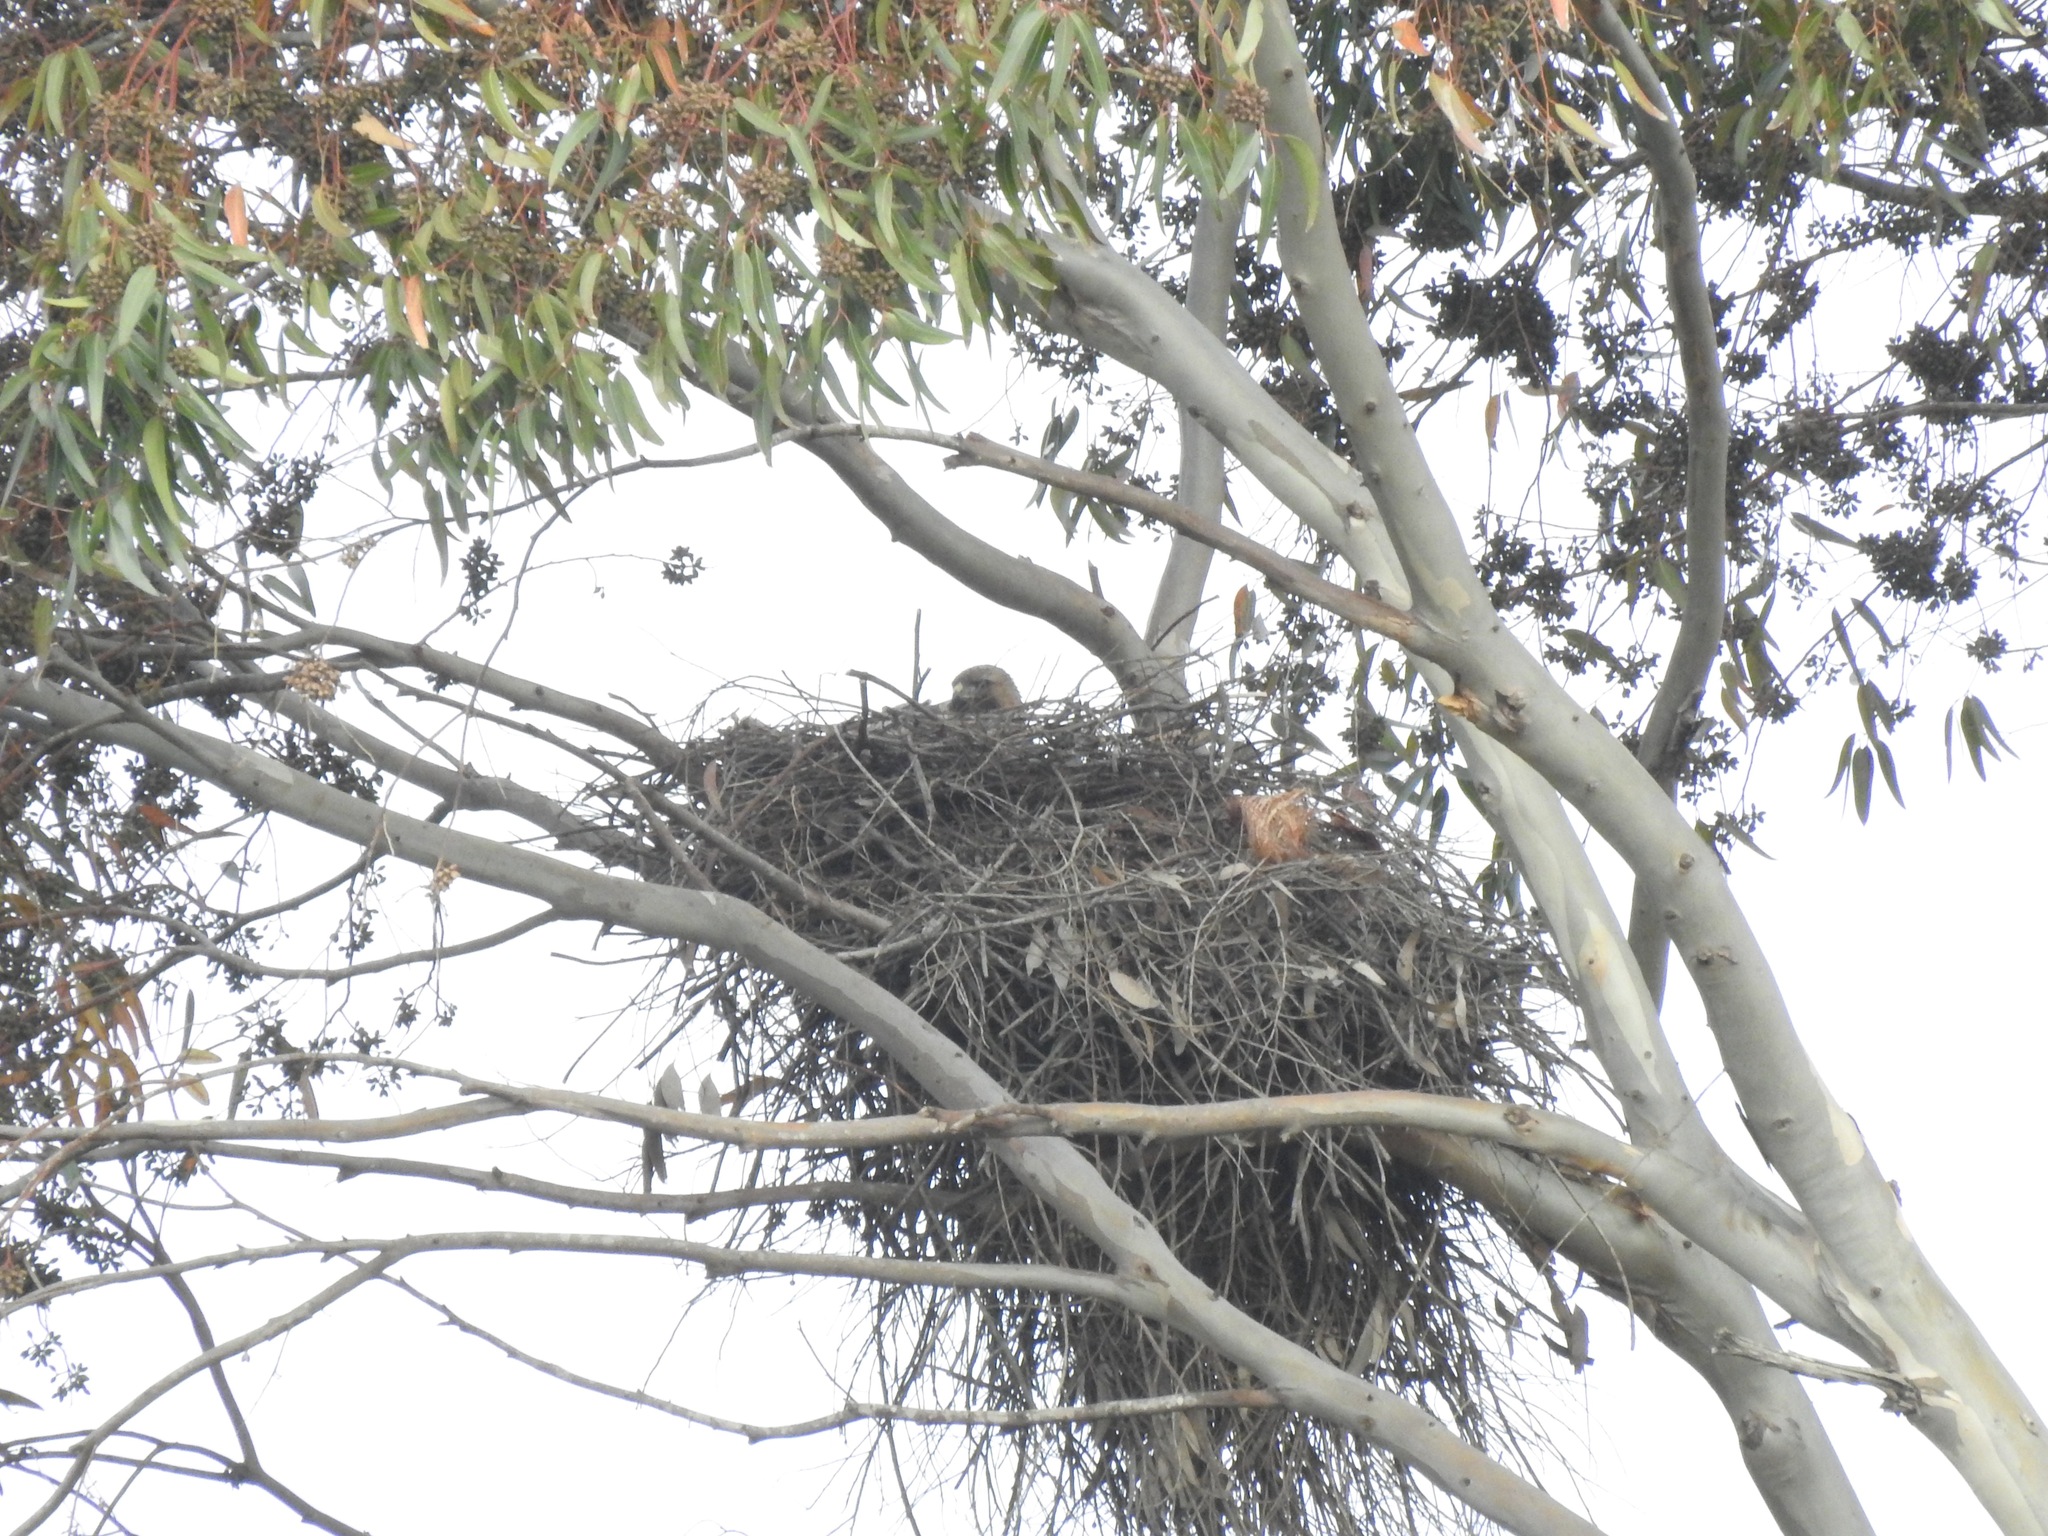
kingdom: Animalia
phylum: Chordata
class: Aves
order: Accipitriformes
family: Accipitridae
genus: Buteo
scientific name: Buteo jamaicensis
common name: Red-tailed hawk
